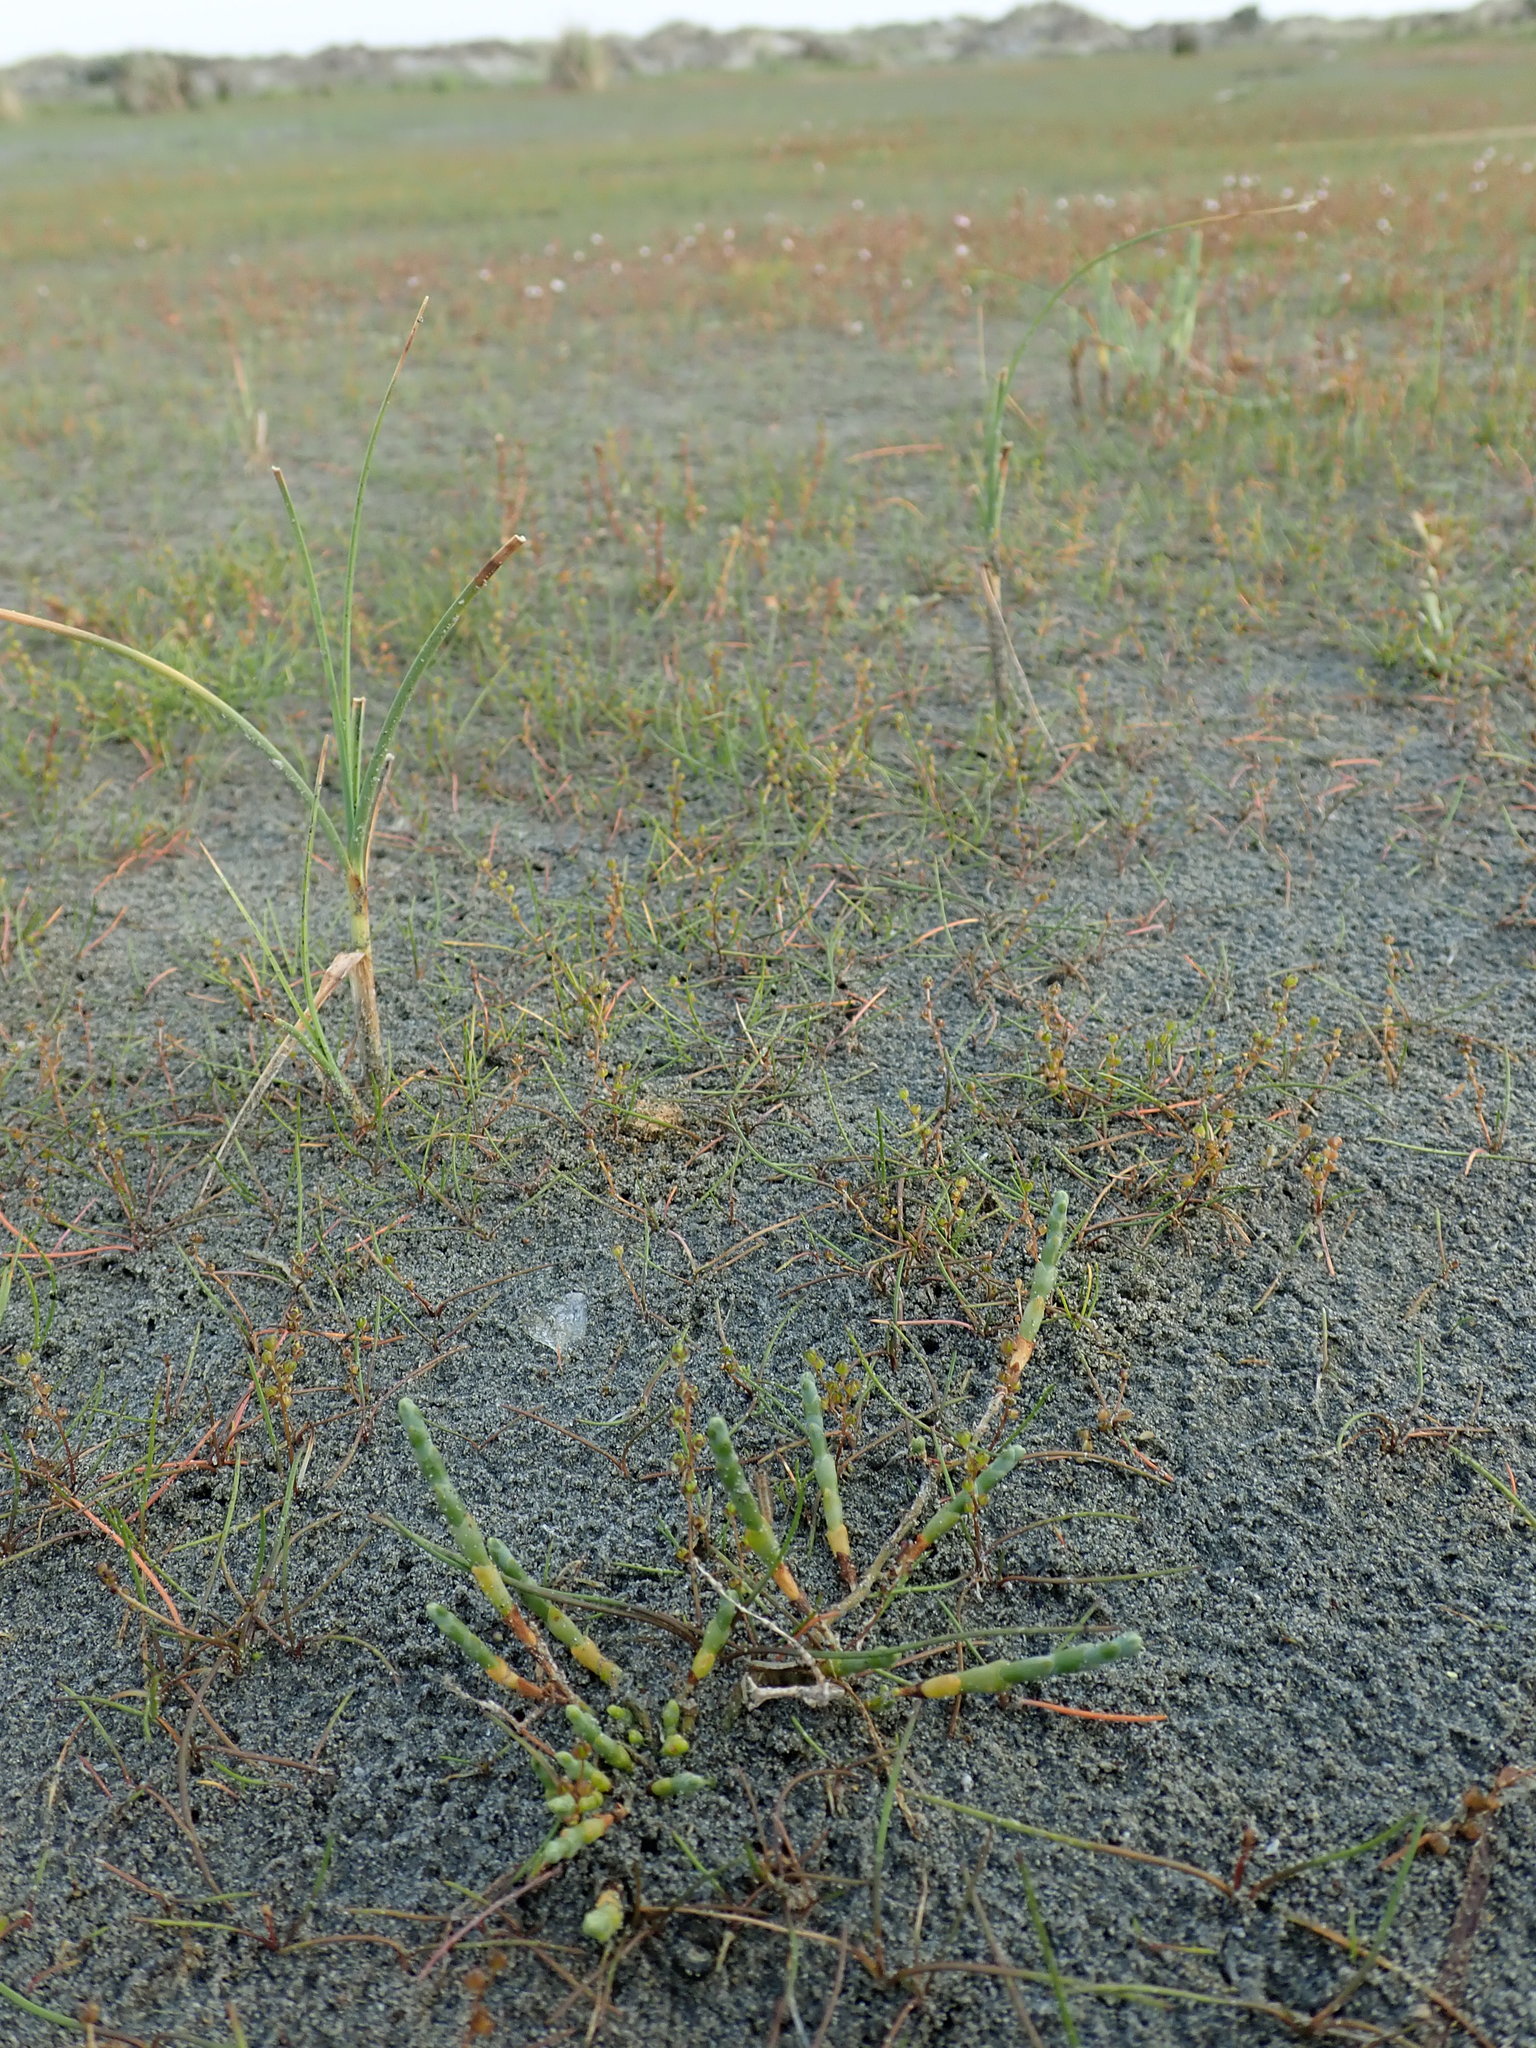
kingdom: Plantae
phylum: Tracheophyta
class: Magnoliopsida
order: Caryophyllales
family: Amaranthaceae
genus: Salicornia
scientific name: Salicornia quinqueflora
